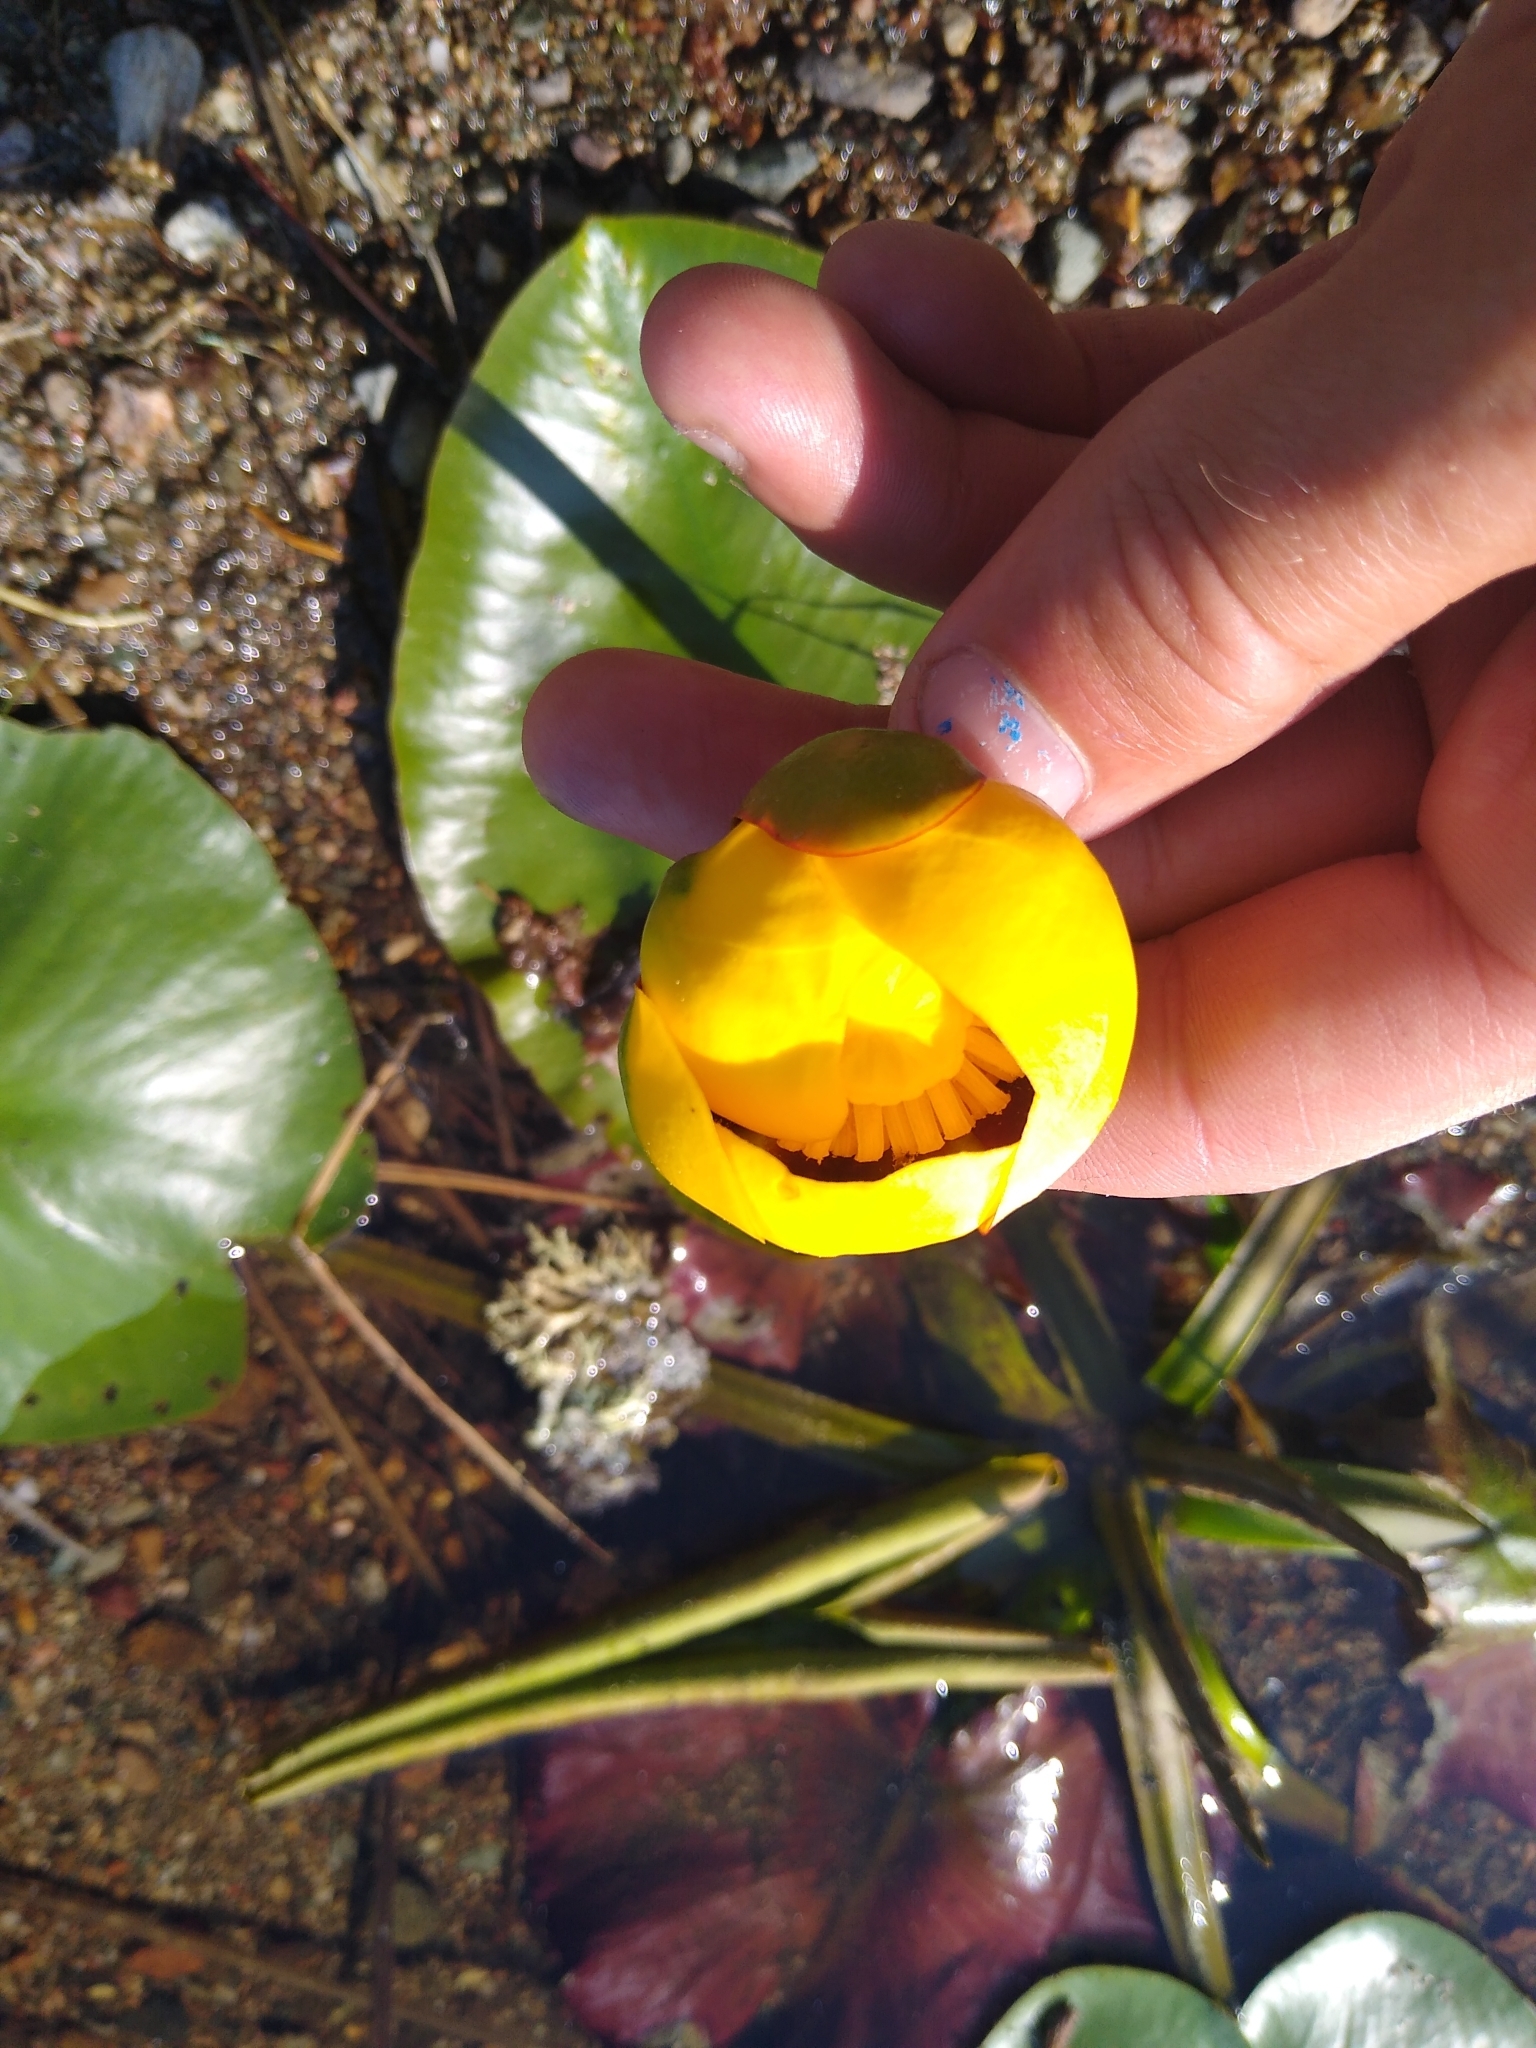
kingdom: Plantae
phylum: Tracheophyta
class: Magnoliopsida
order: Nymphaeales
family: Nymphaeaceae
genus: Nuphar
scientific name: Nuphar variegata
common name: Beaver-root
